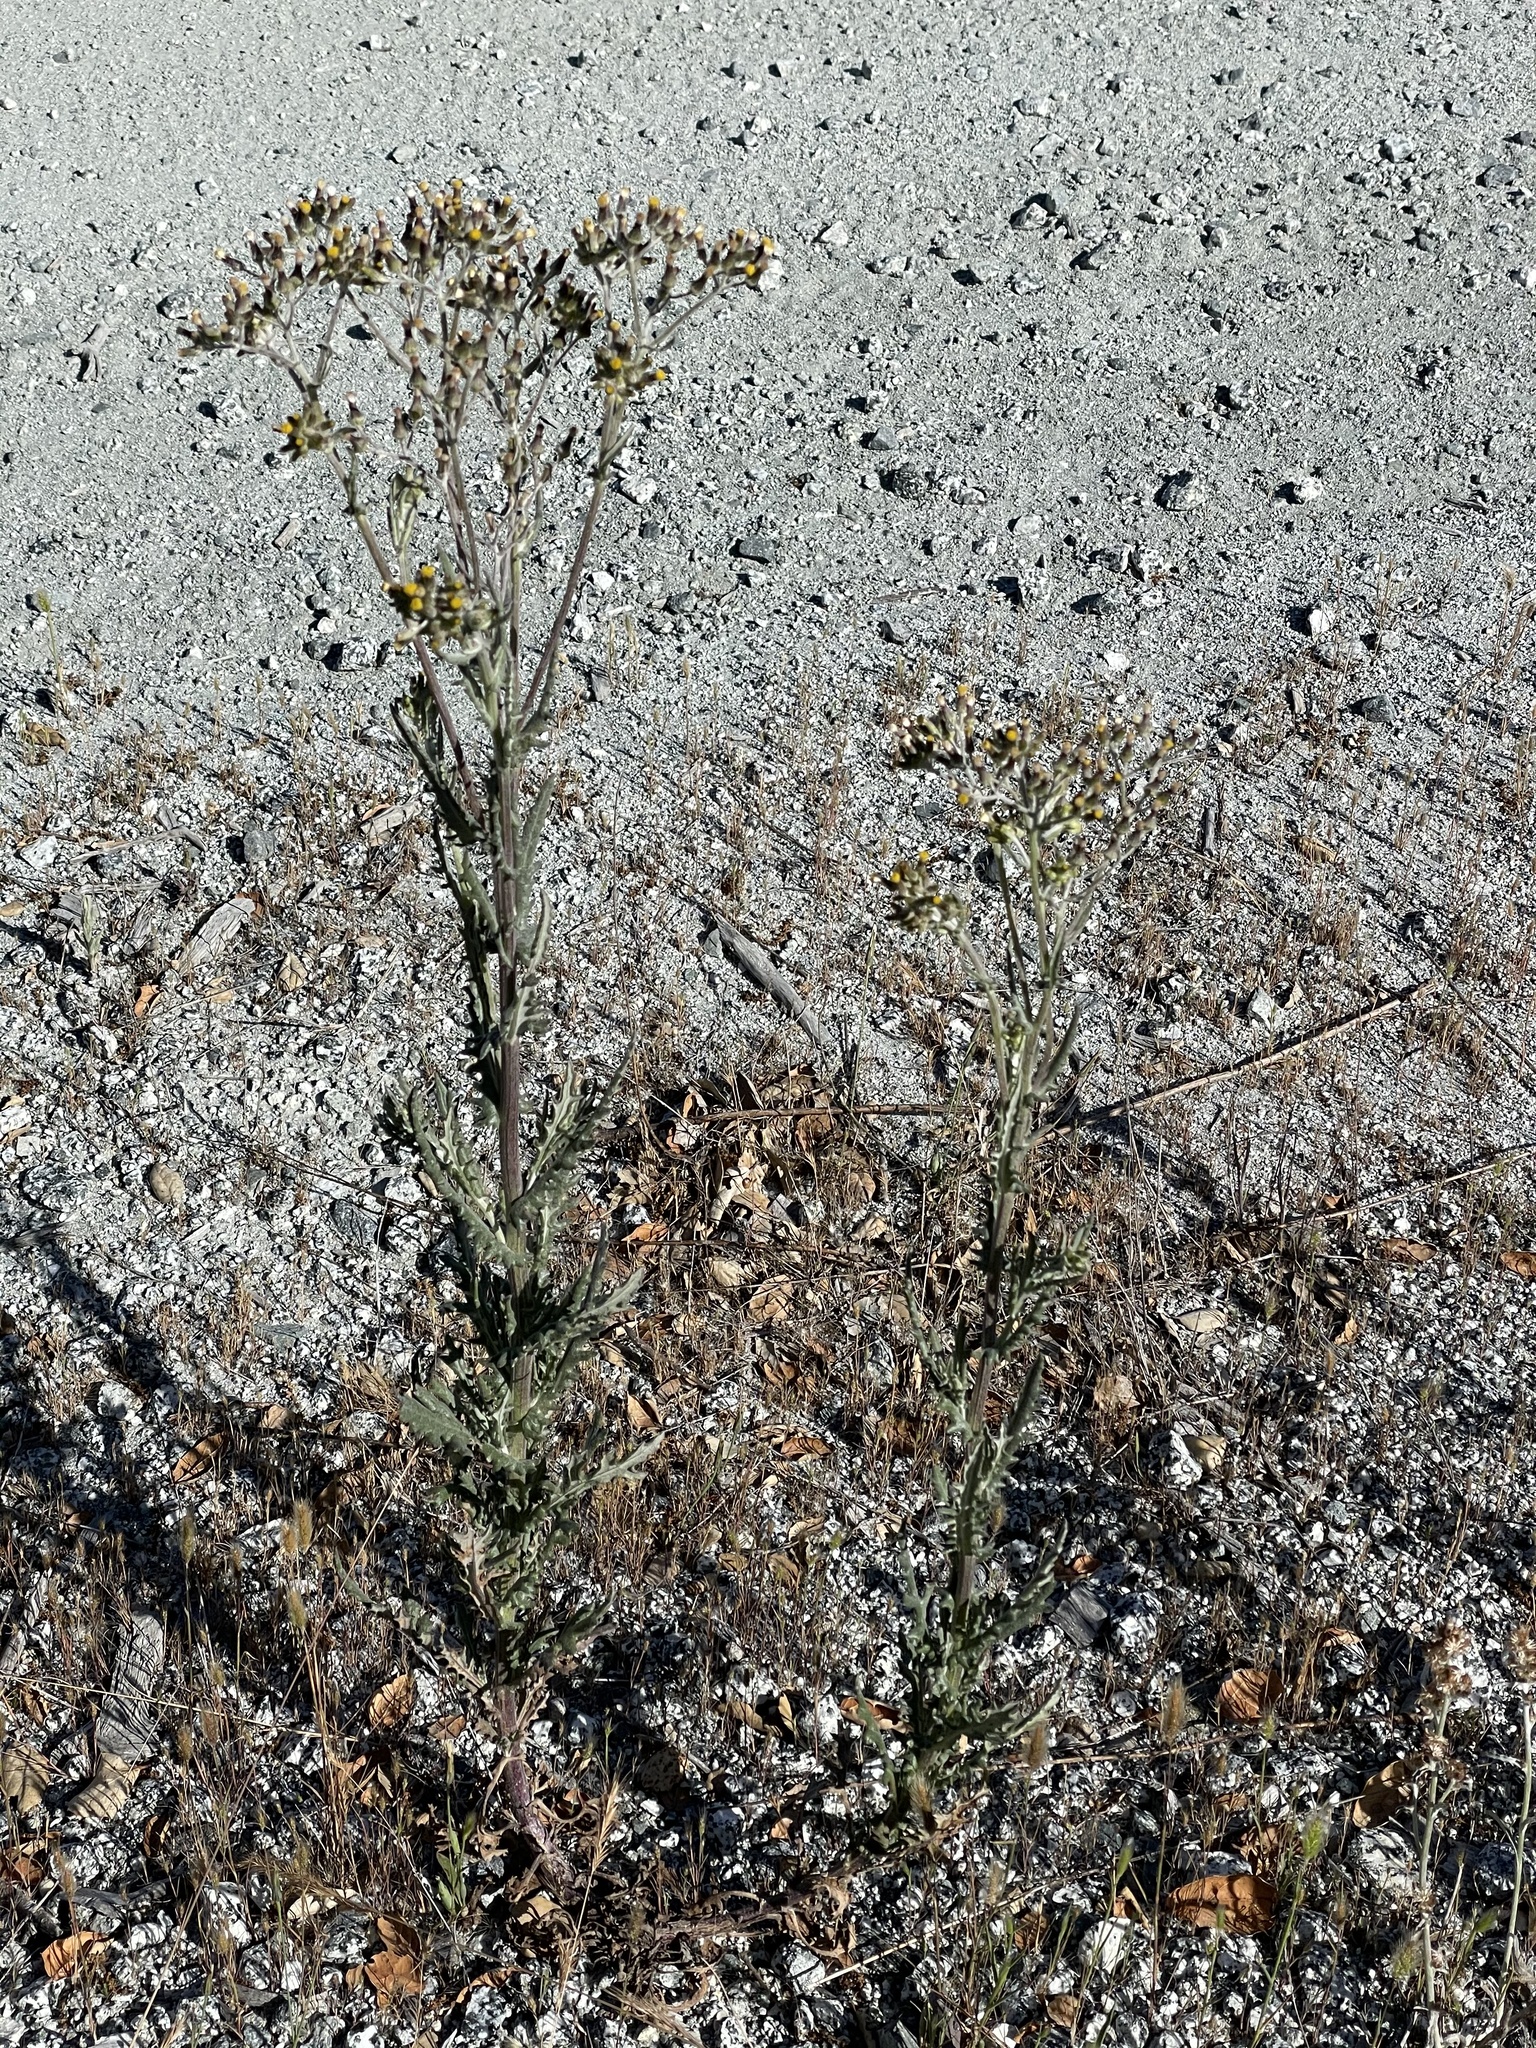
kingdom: Plantae
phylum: Tracheophyta
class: Magnoliopsida
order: Asterales
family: Asteraceae
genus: Senecio
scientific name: Senecio glomeratus
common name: Cutleaf burnweed
